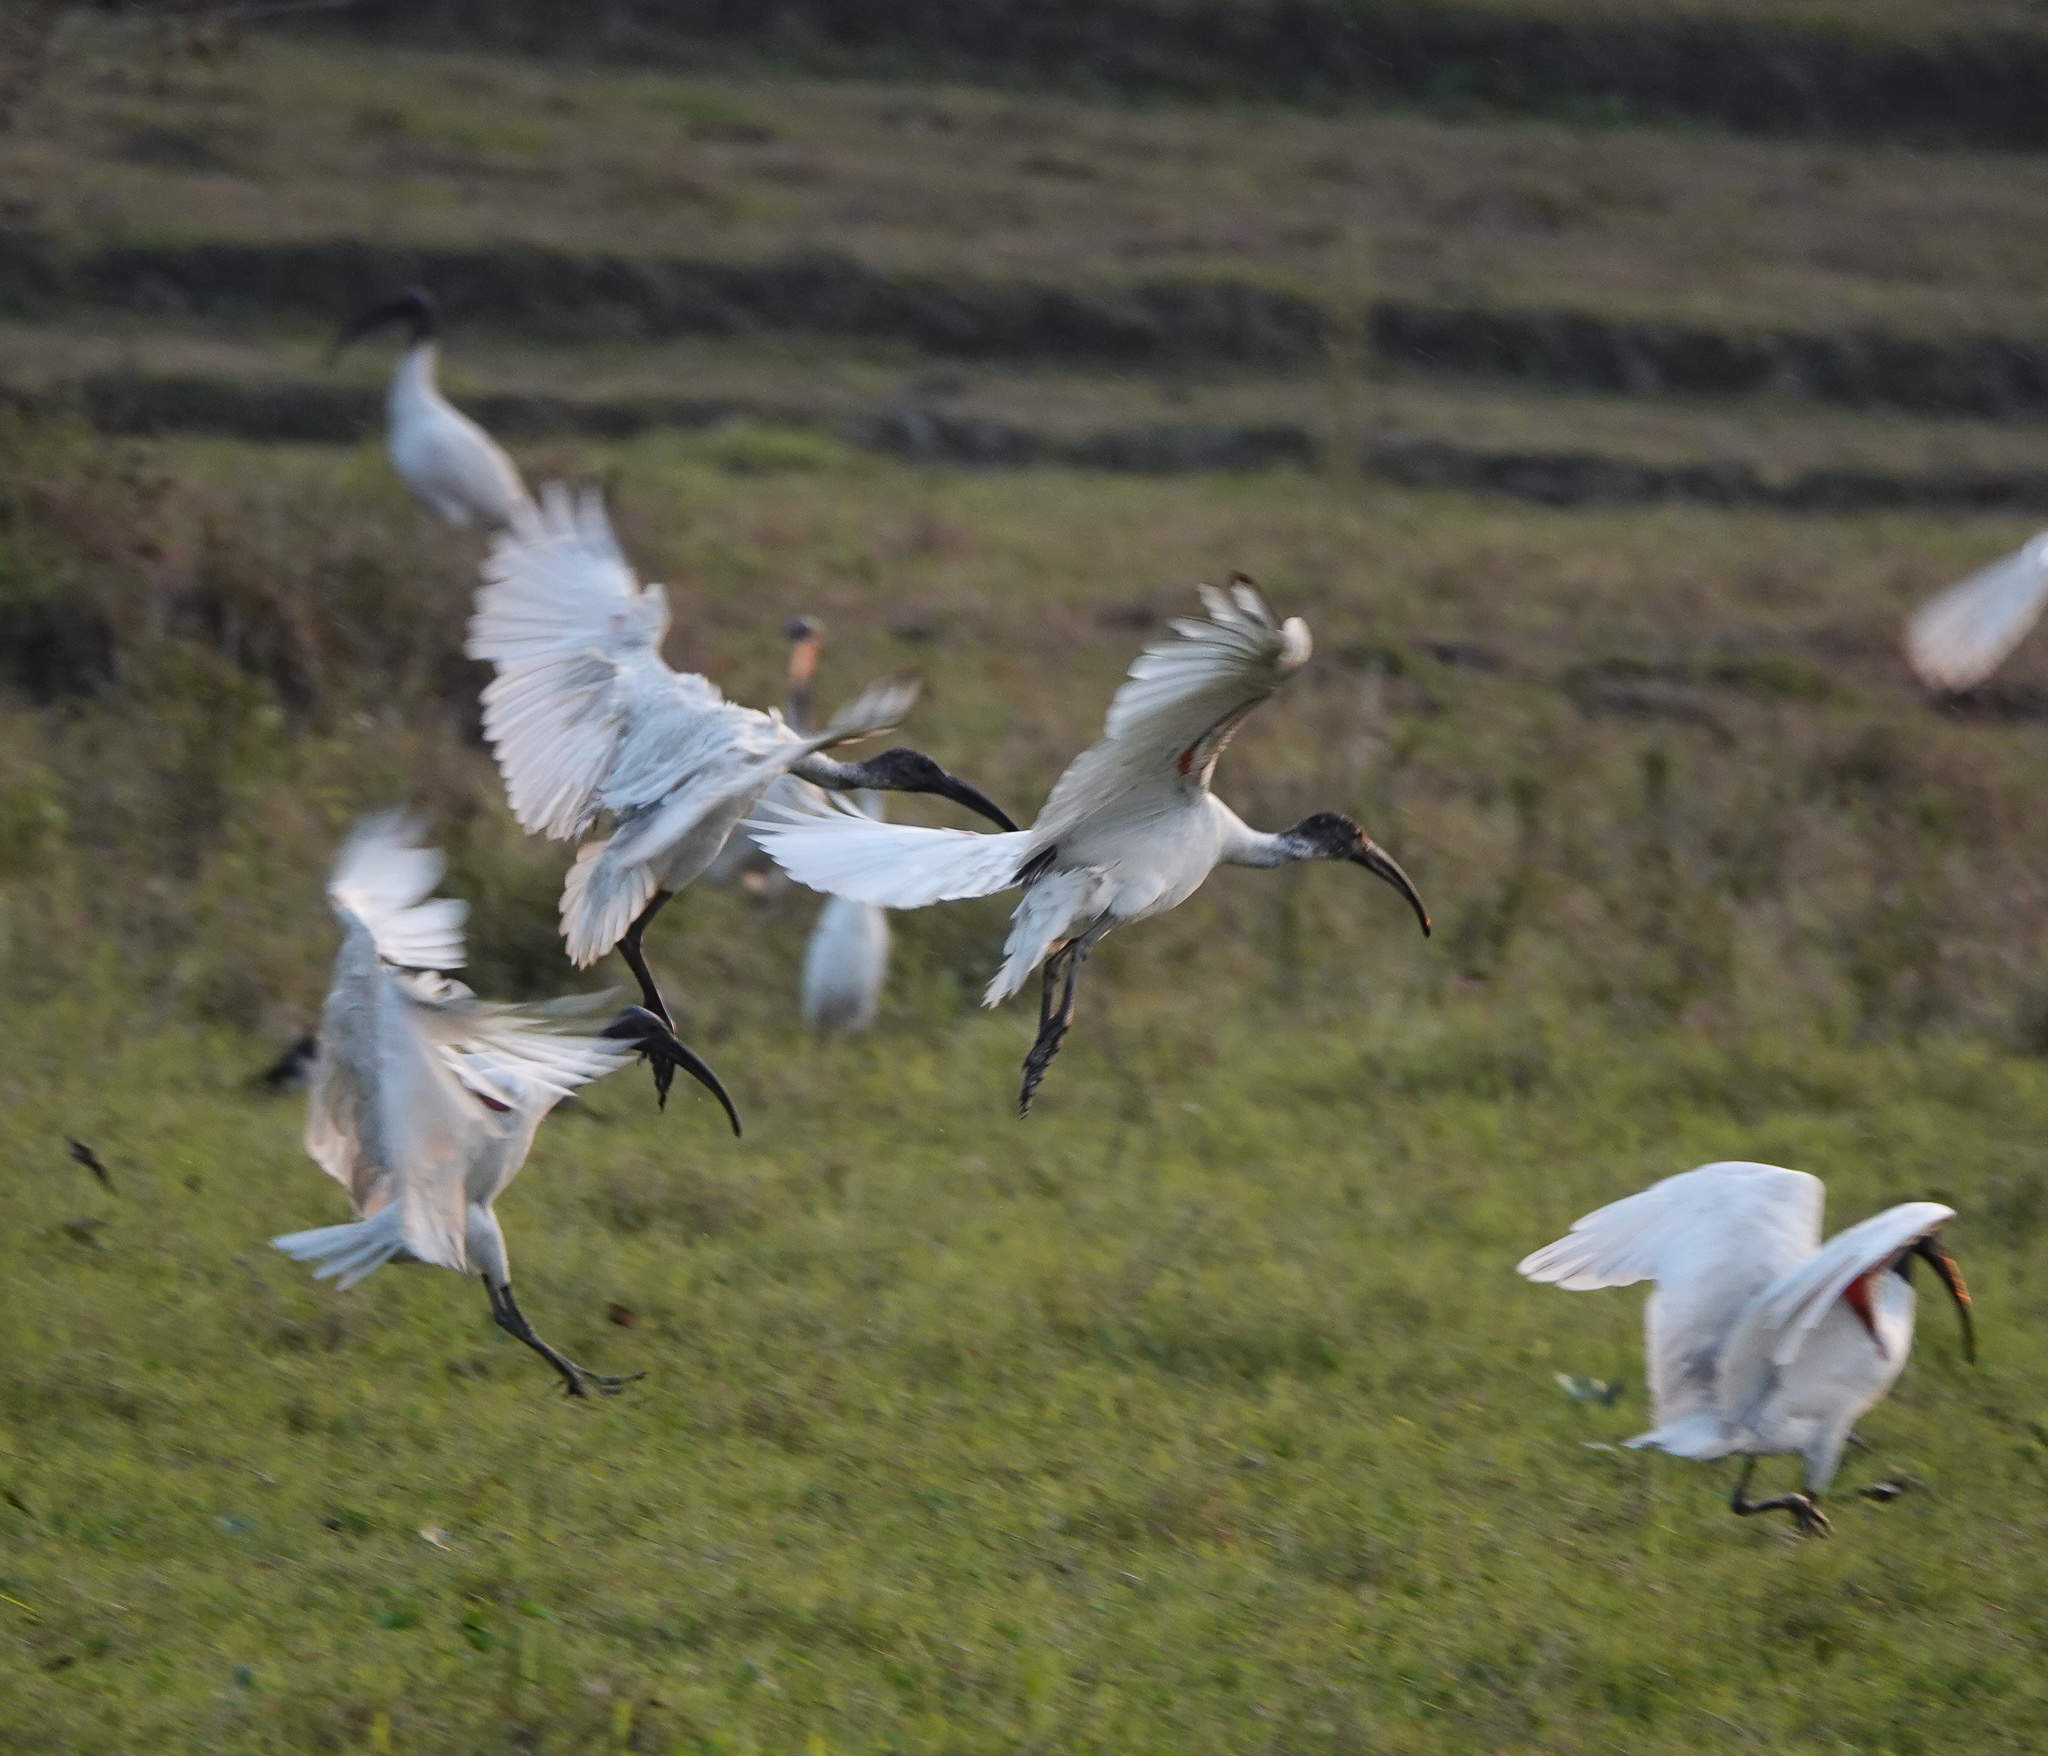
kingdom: Animalia
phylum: Chordata
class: Aves
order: Pelecaniformes
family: Threskiornithidae
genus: Threskiornis
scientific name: Threskiornis melanocephalus
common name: Black-headed ibis
